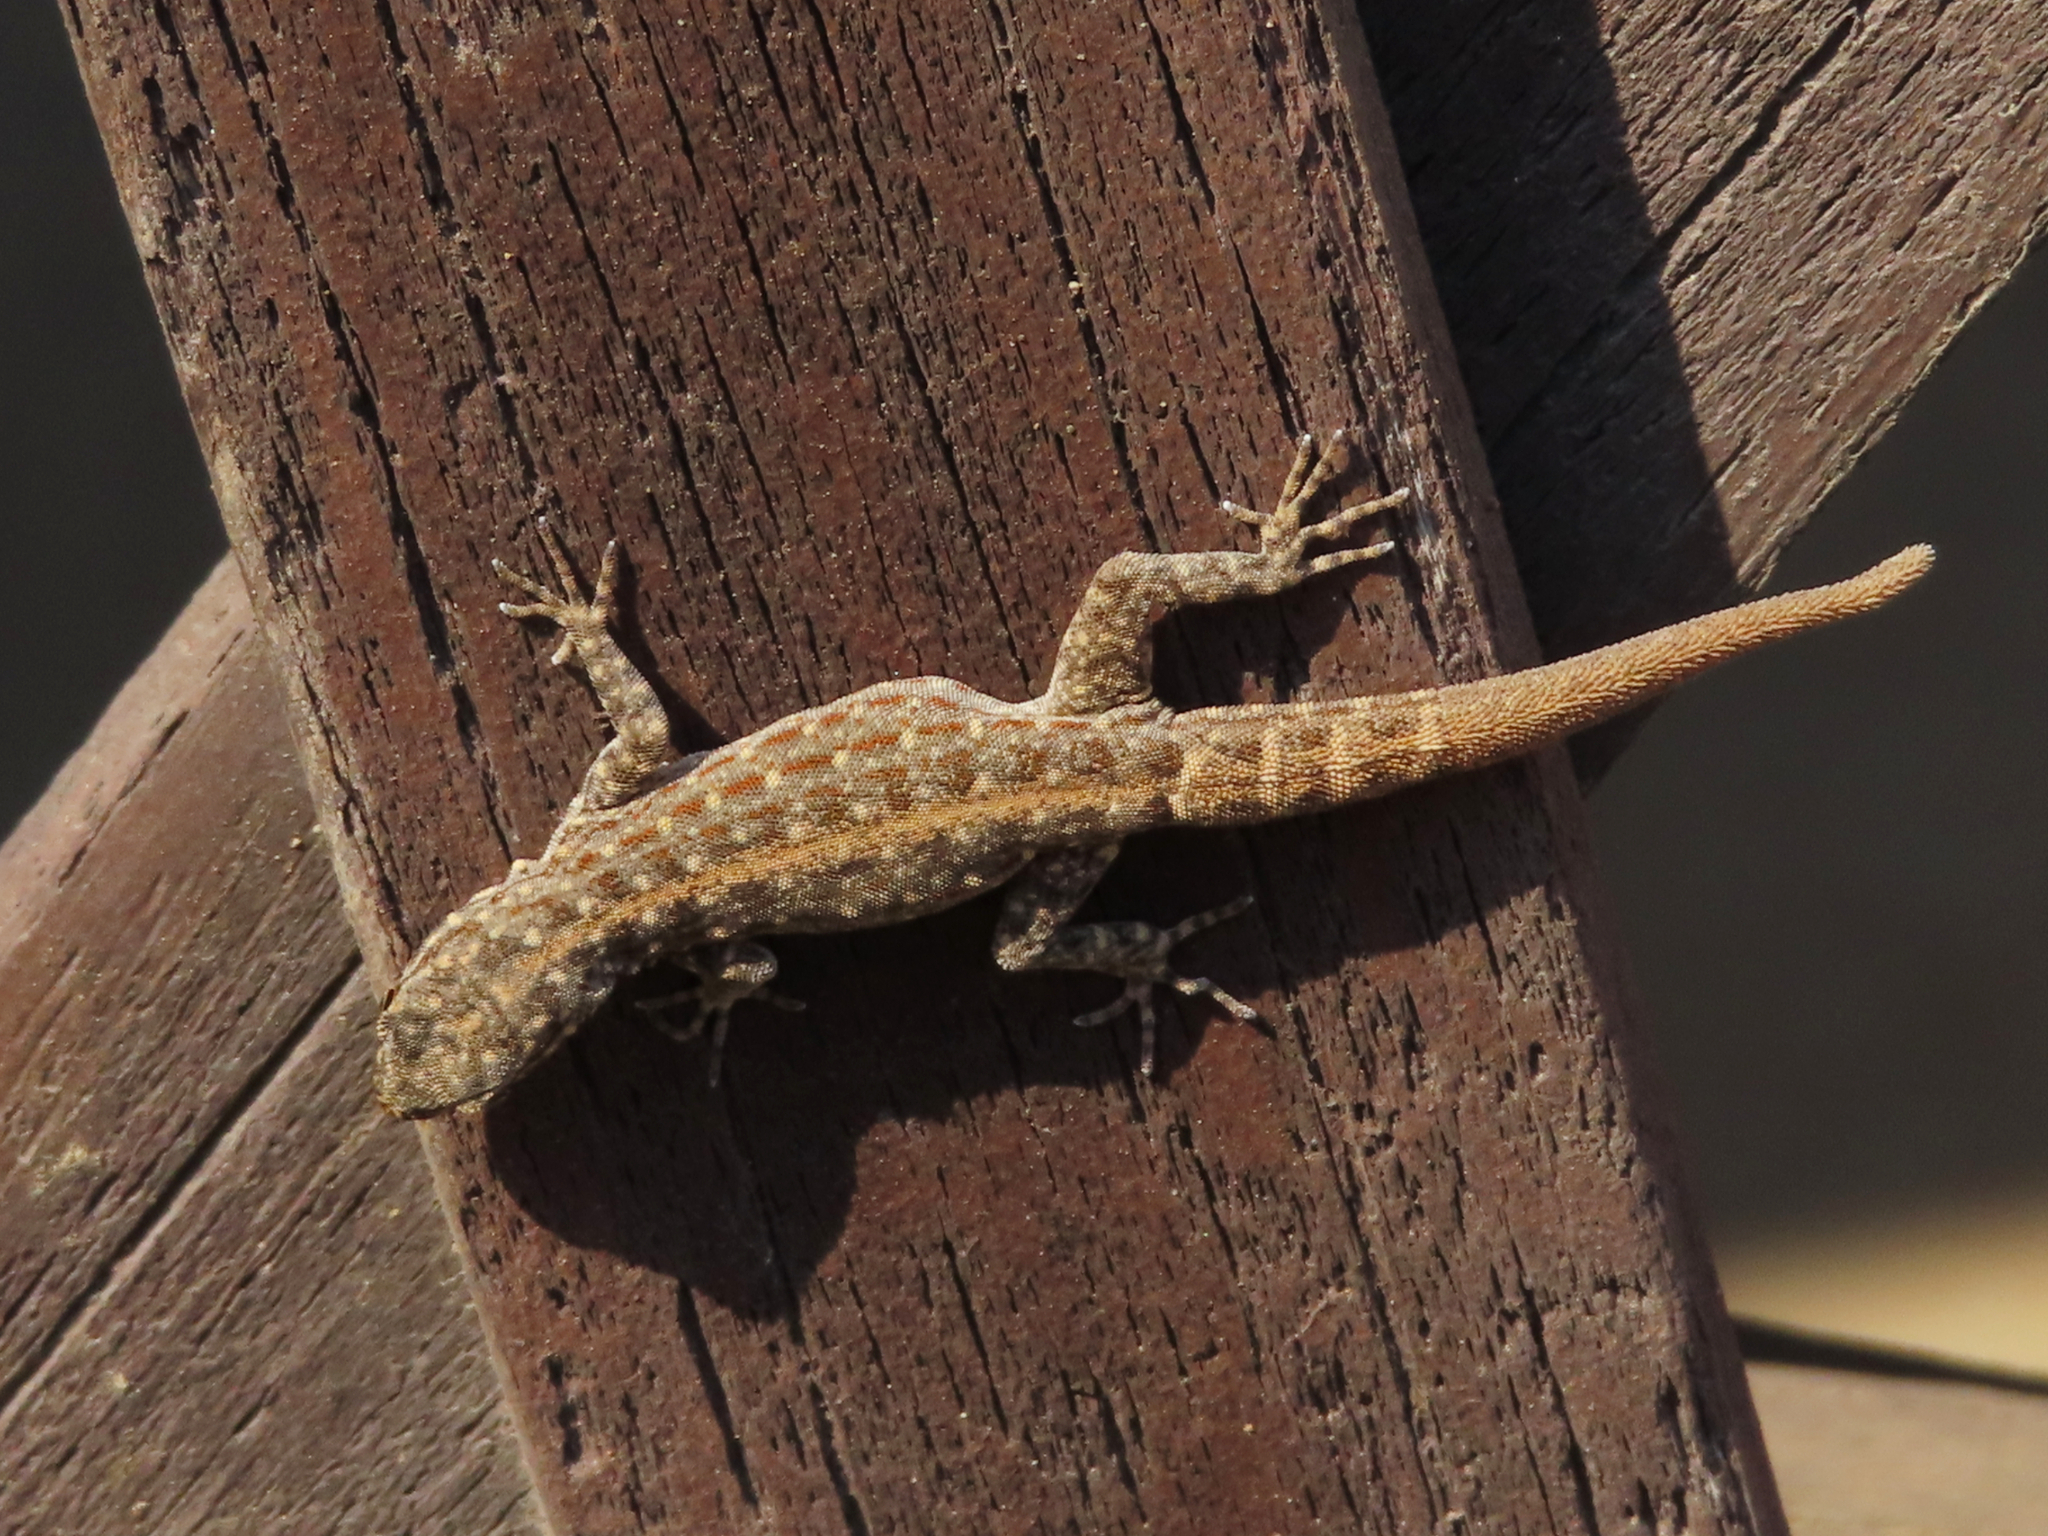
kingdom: Animalia
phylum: Chordata
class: Squamata
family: Sphaerodactylidae
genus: Pristurus
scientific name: Pristurus rupestris
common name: Blanford’s semaphore gecko
